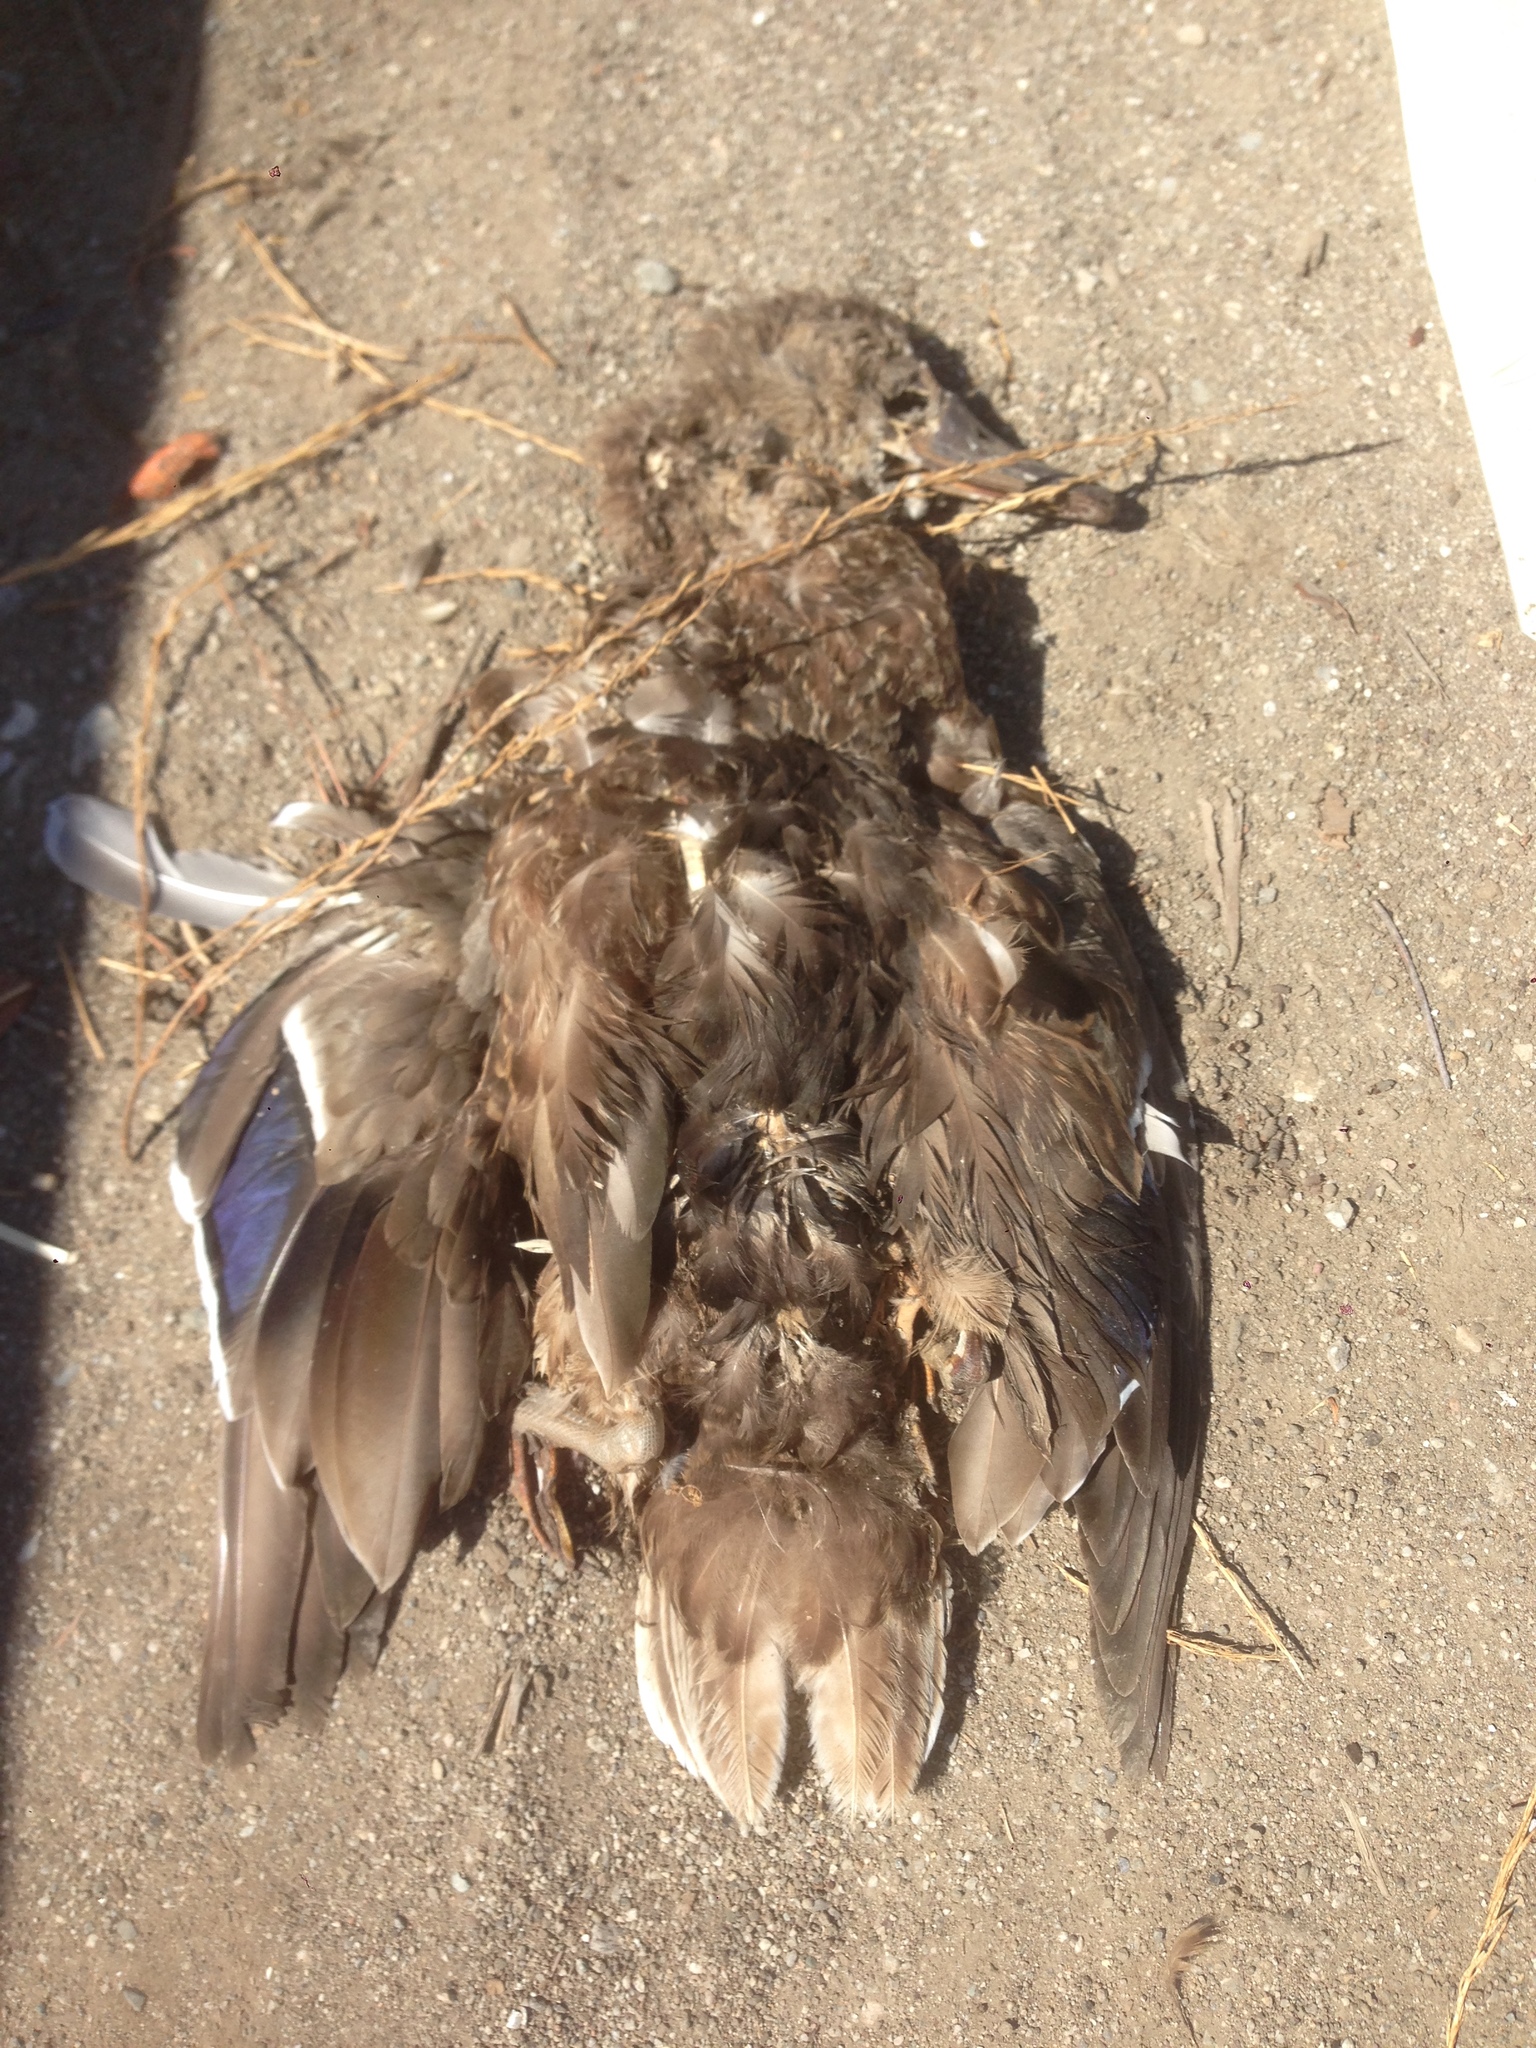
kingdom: Animalia
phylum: Chordata
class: Aves
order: Anseriformes
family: Anatidae
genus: Anas
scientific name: Anas platyrhynchos
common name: Mallard
